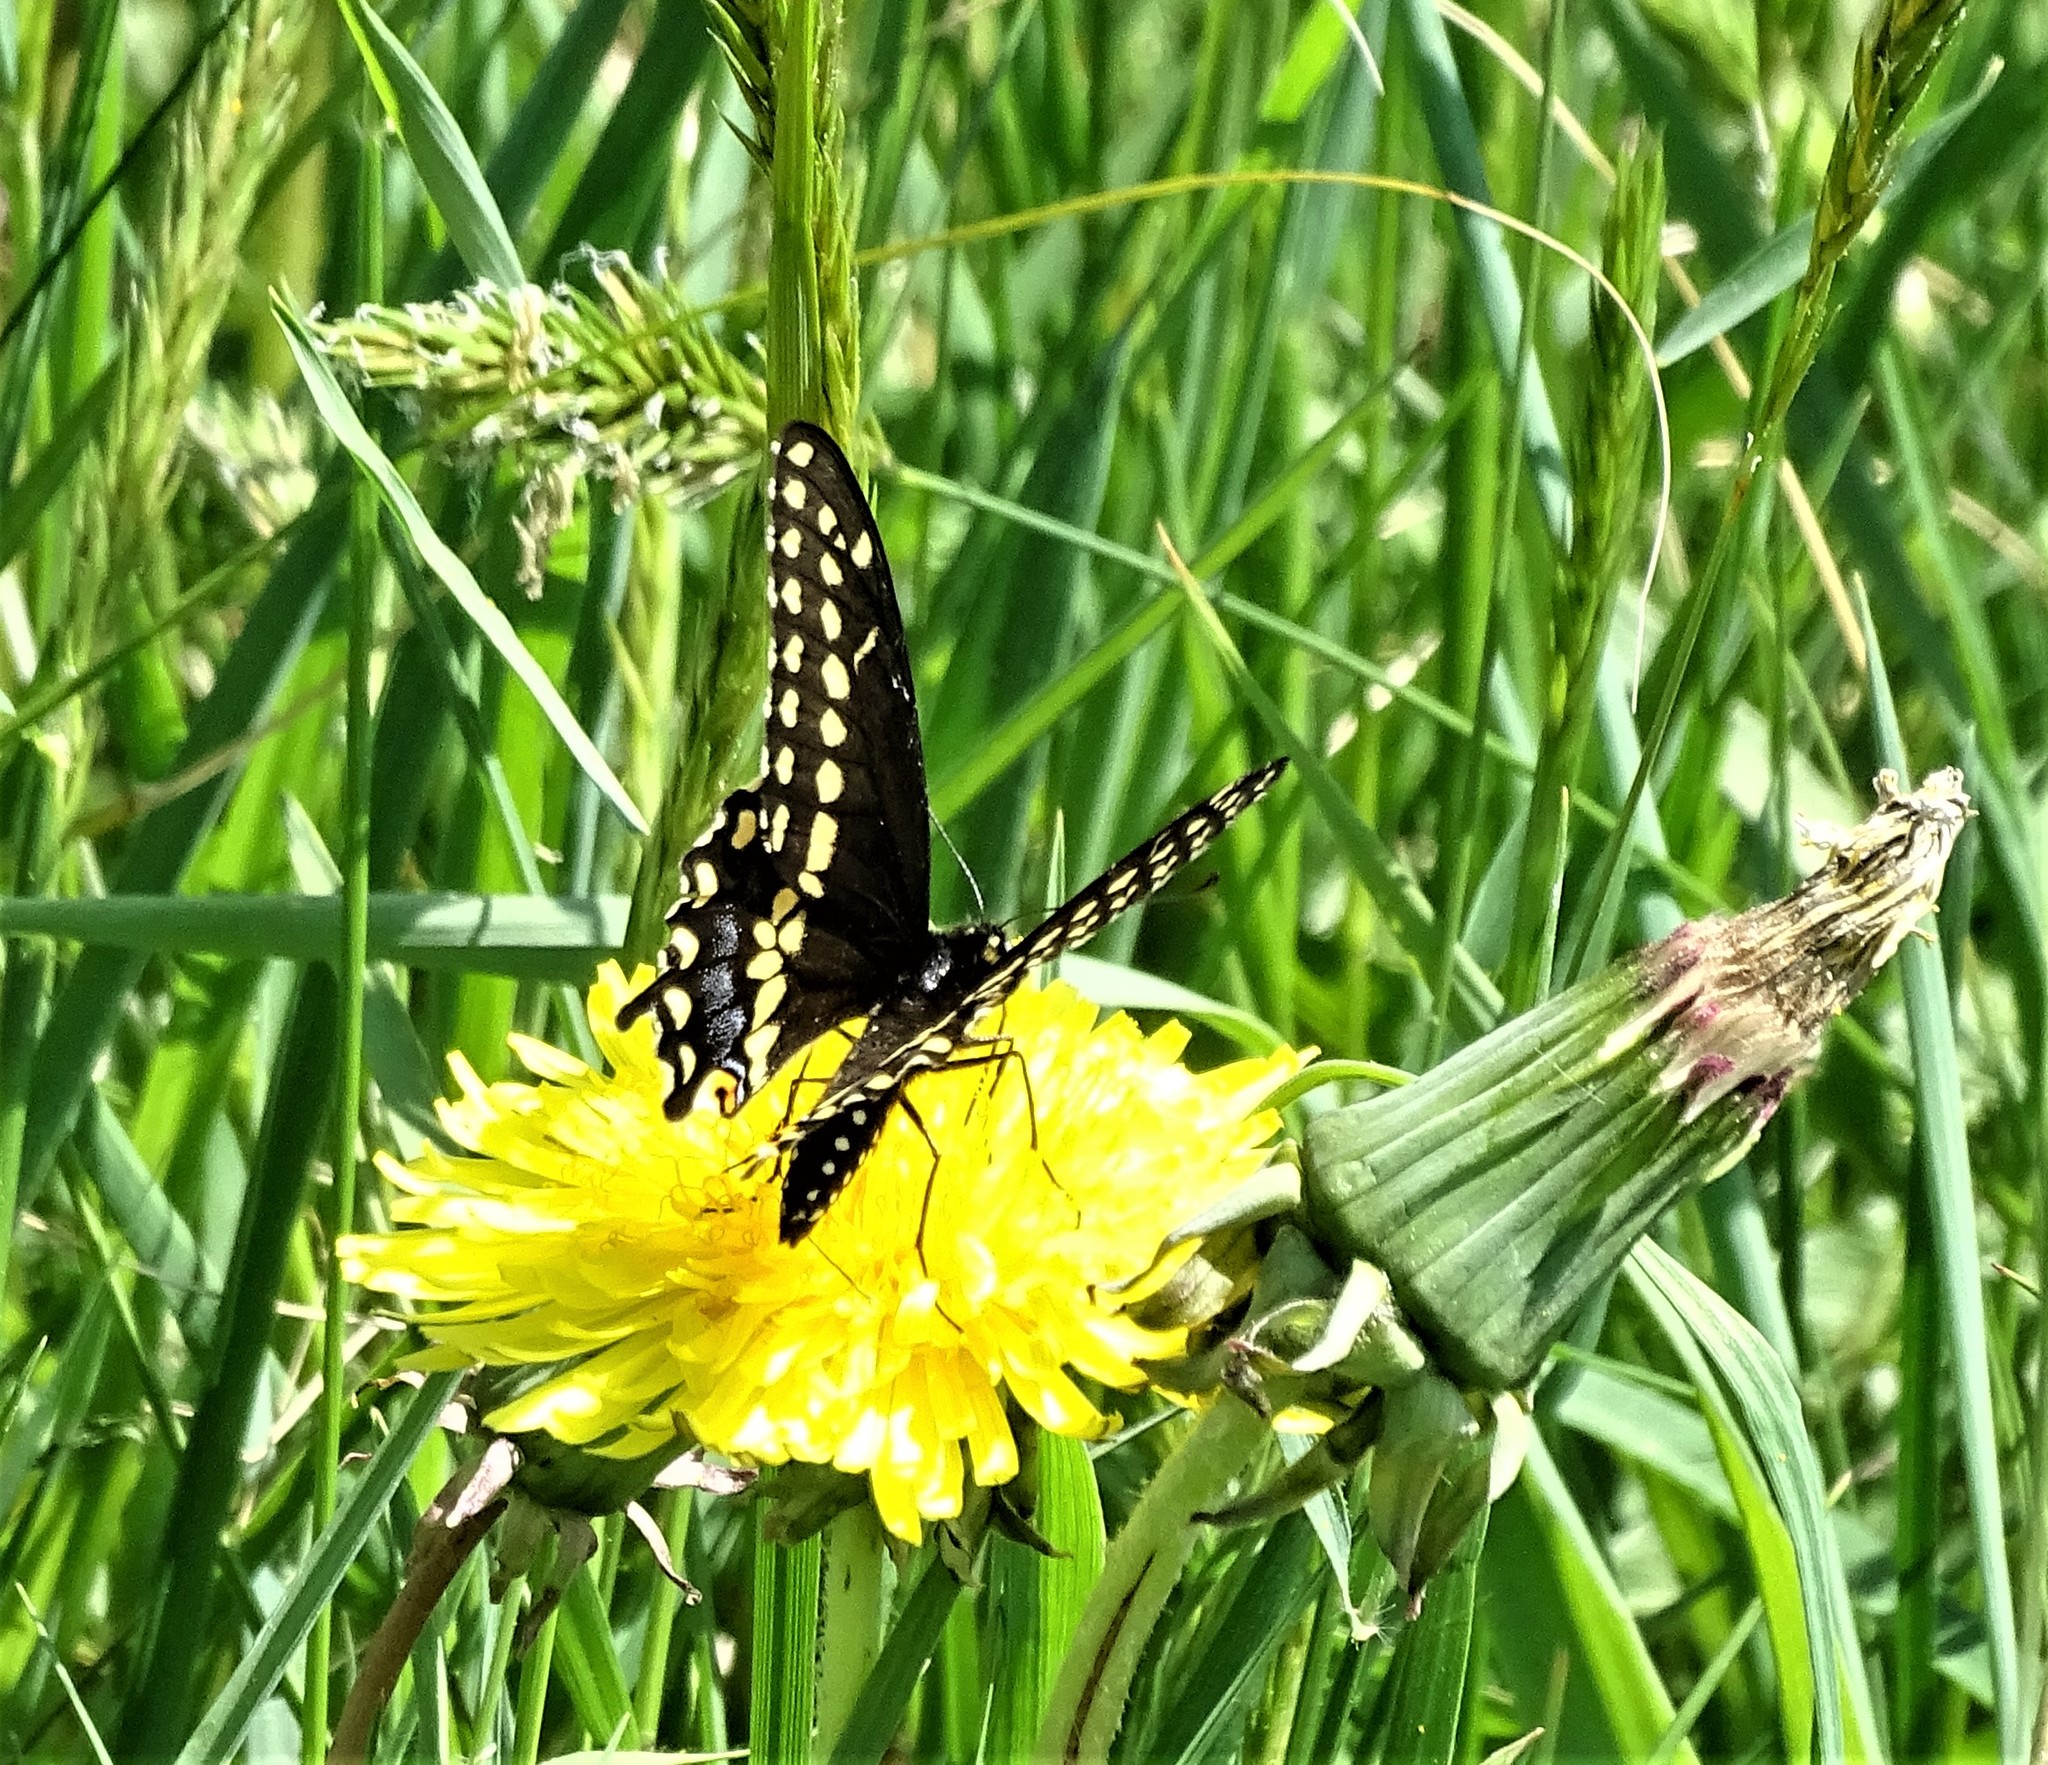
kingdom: Animalia
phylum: Arthropoda
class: Insecta
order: Lepidoptera
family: Papilionidae
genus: Papilio
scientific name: Papilio polyxenes
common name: Black swallowtail
